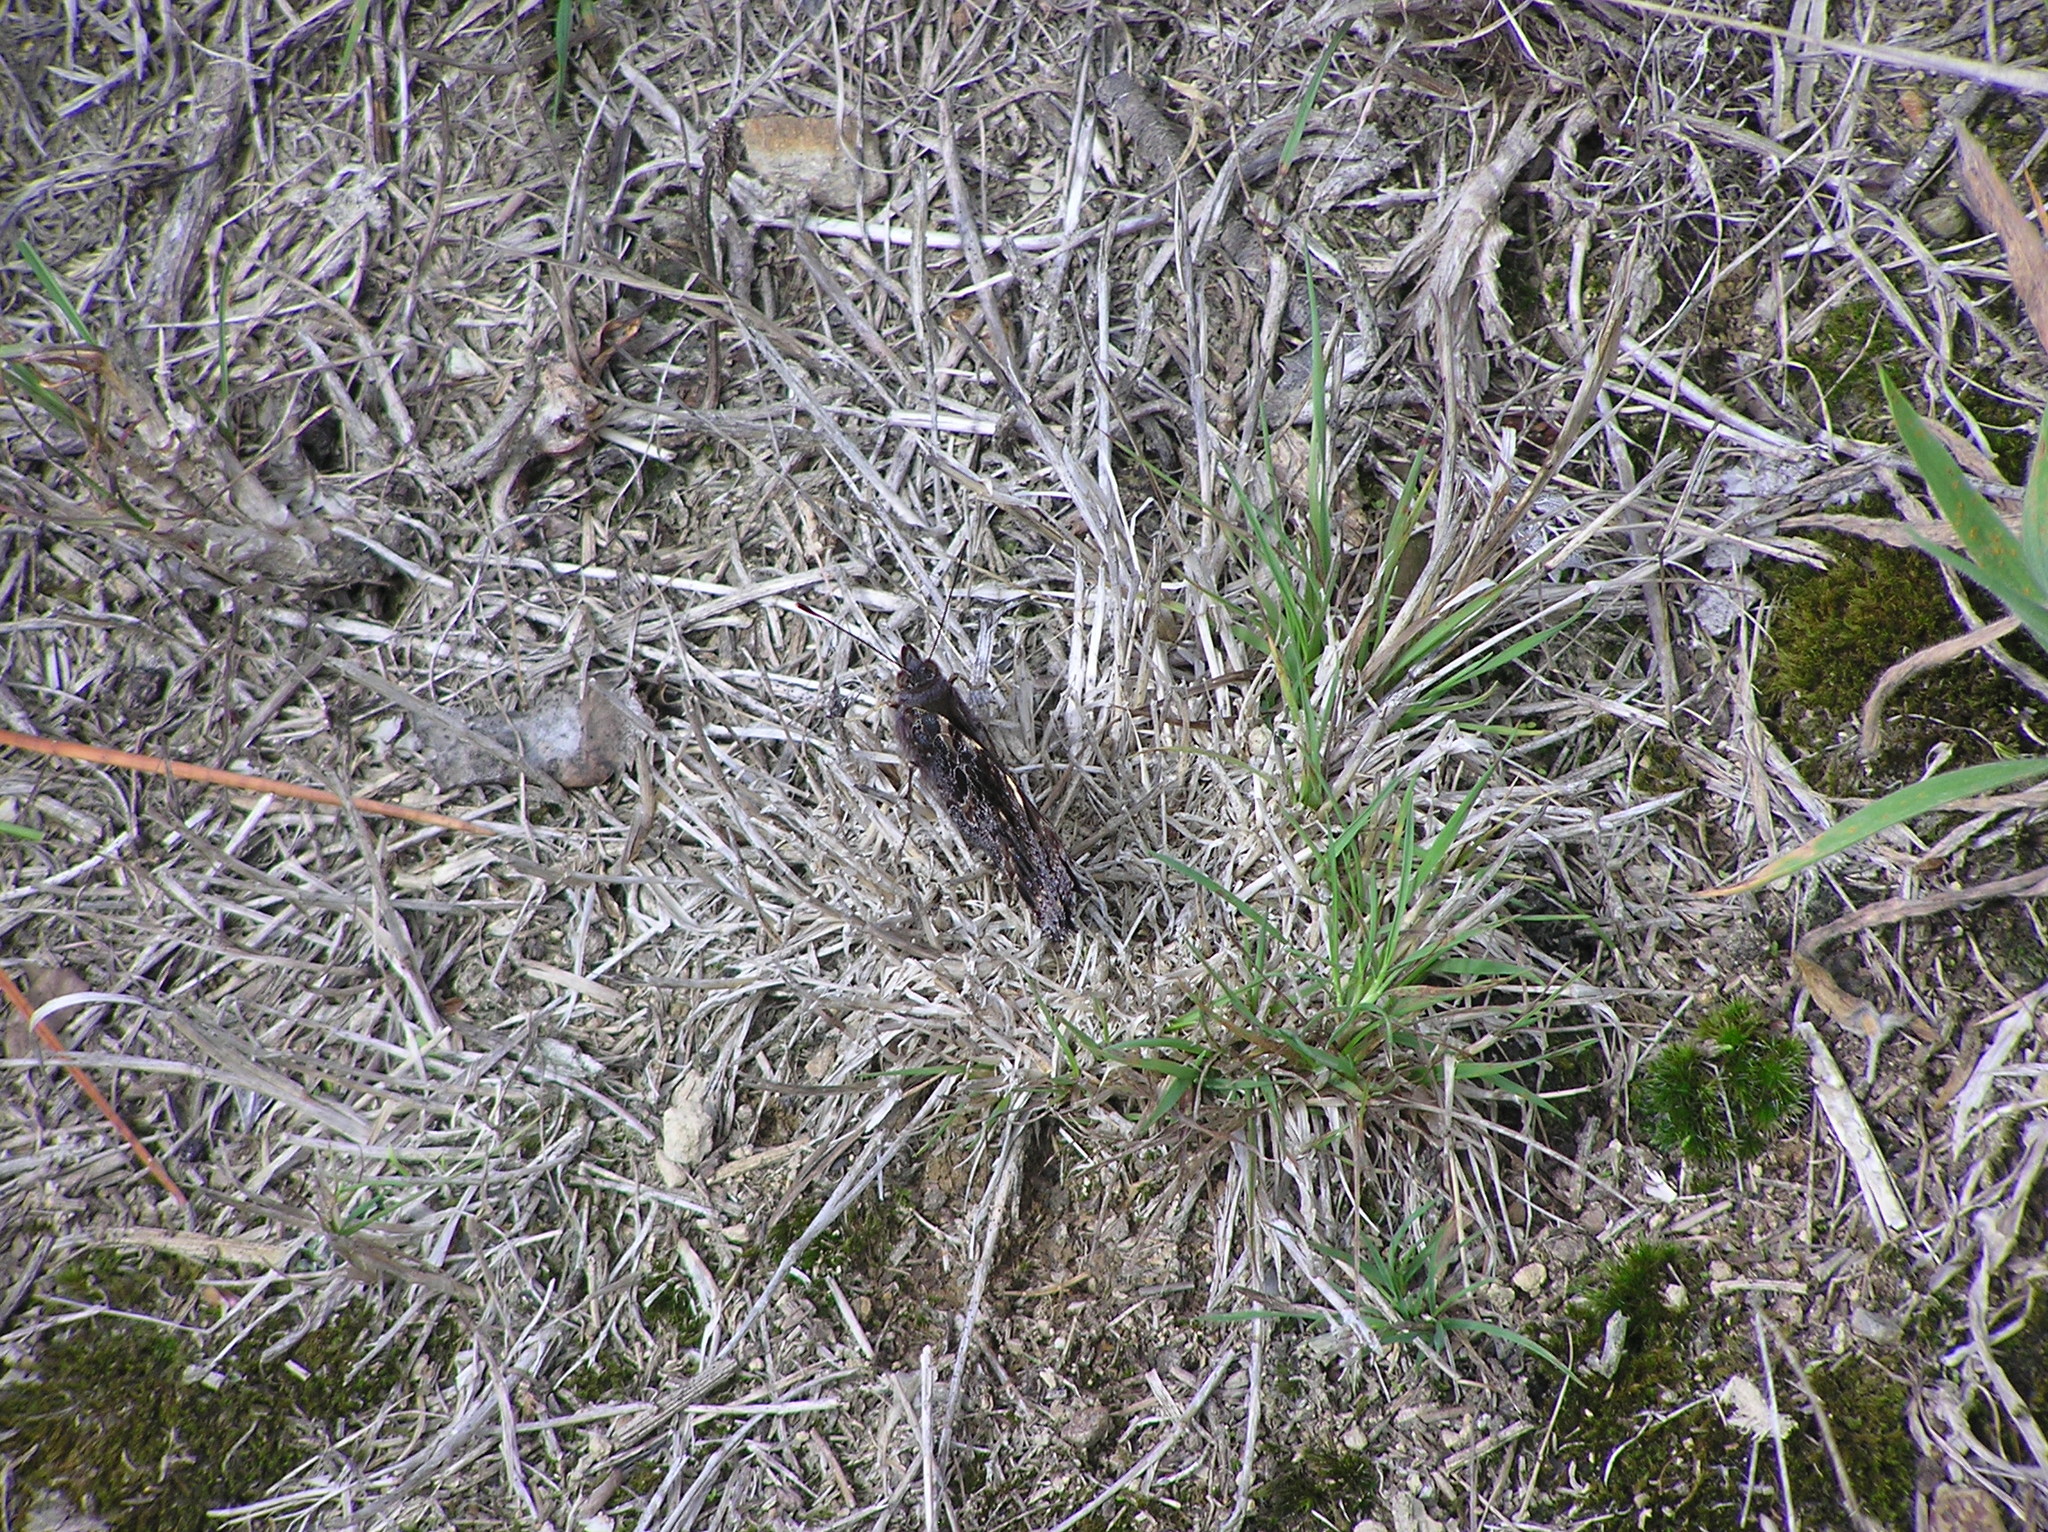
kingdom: Animalia
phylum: Arthropoda
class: Insecta
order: Lepidoptera
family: Nymphalidae
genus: Vanessa
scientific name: Vanessa itea
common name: Yellow admiral
